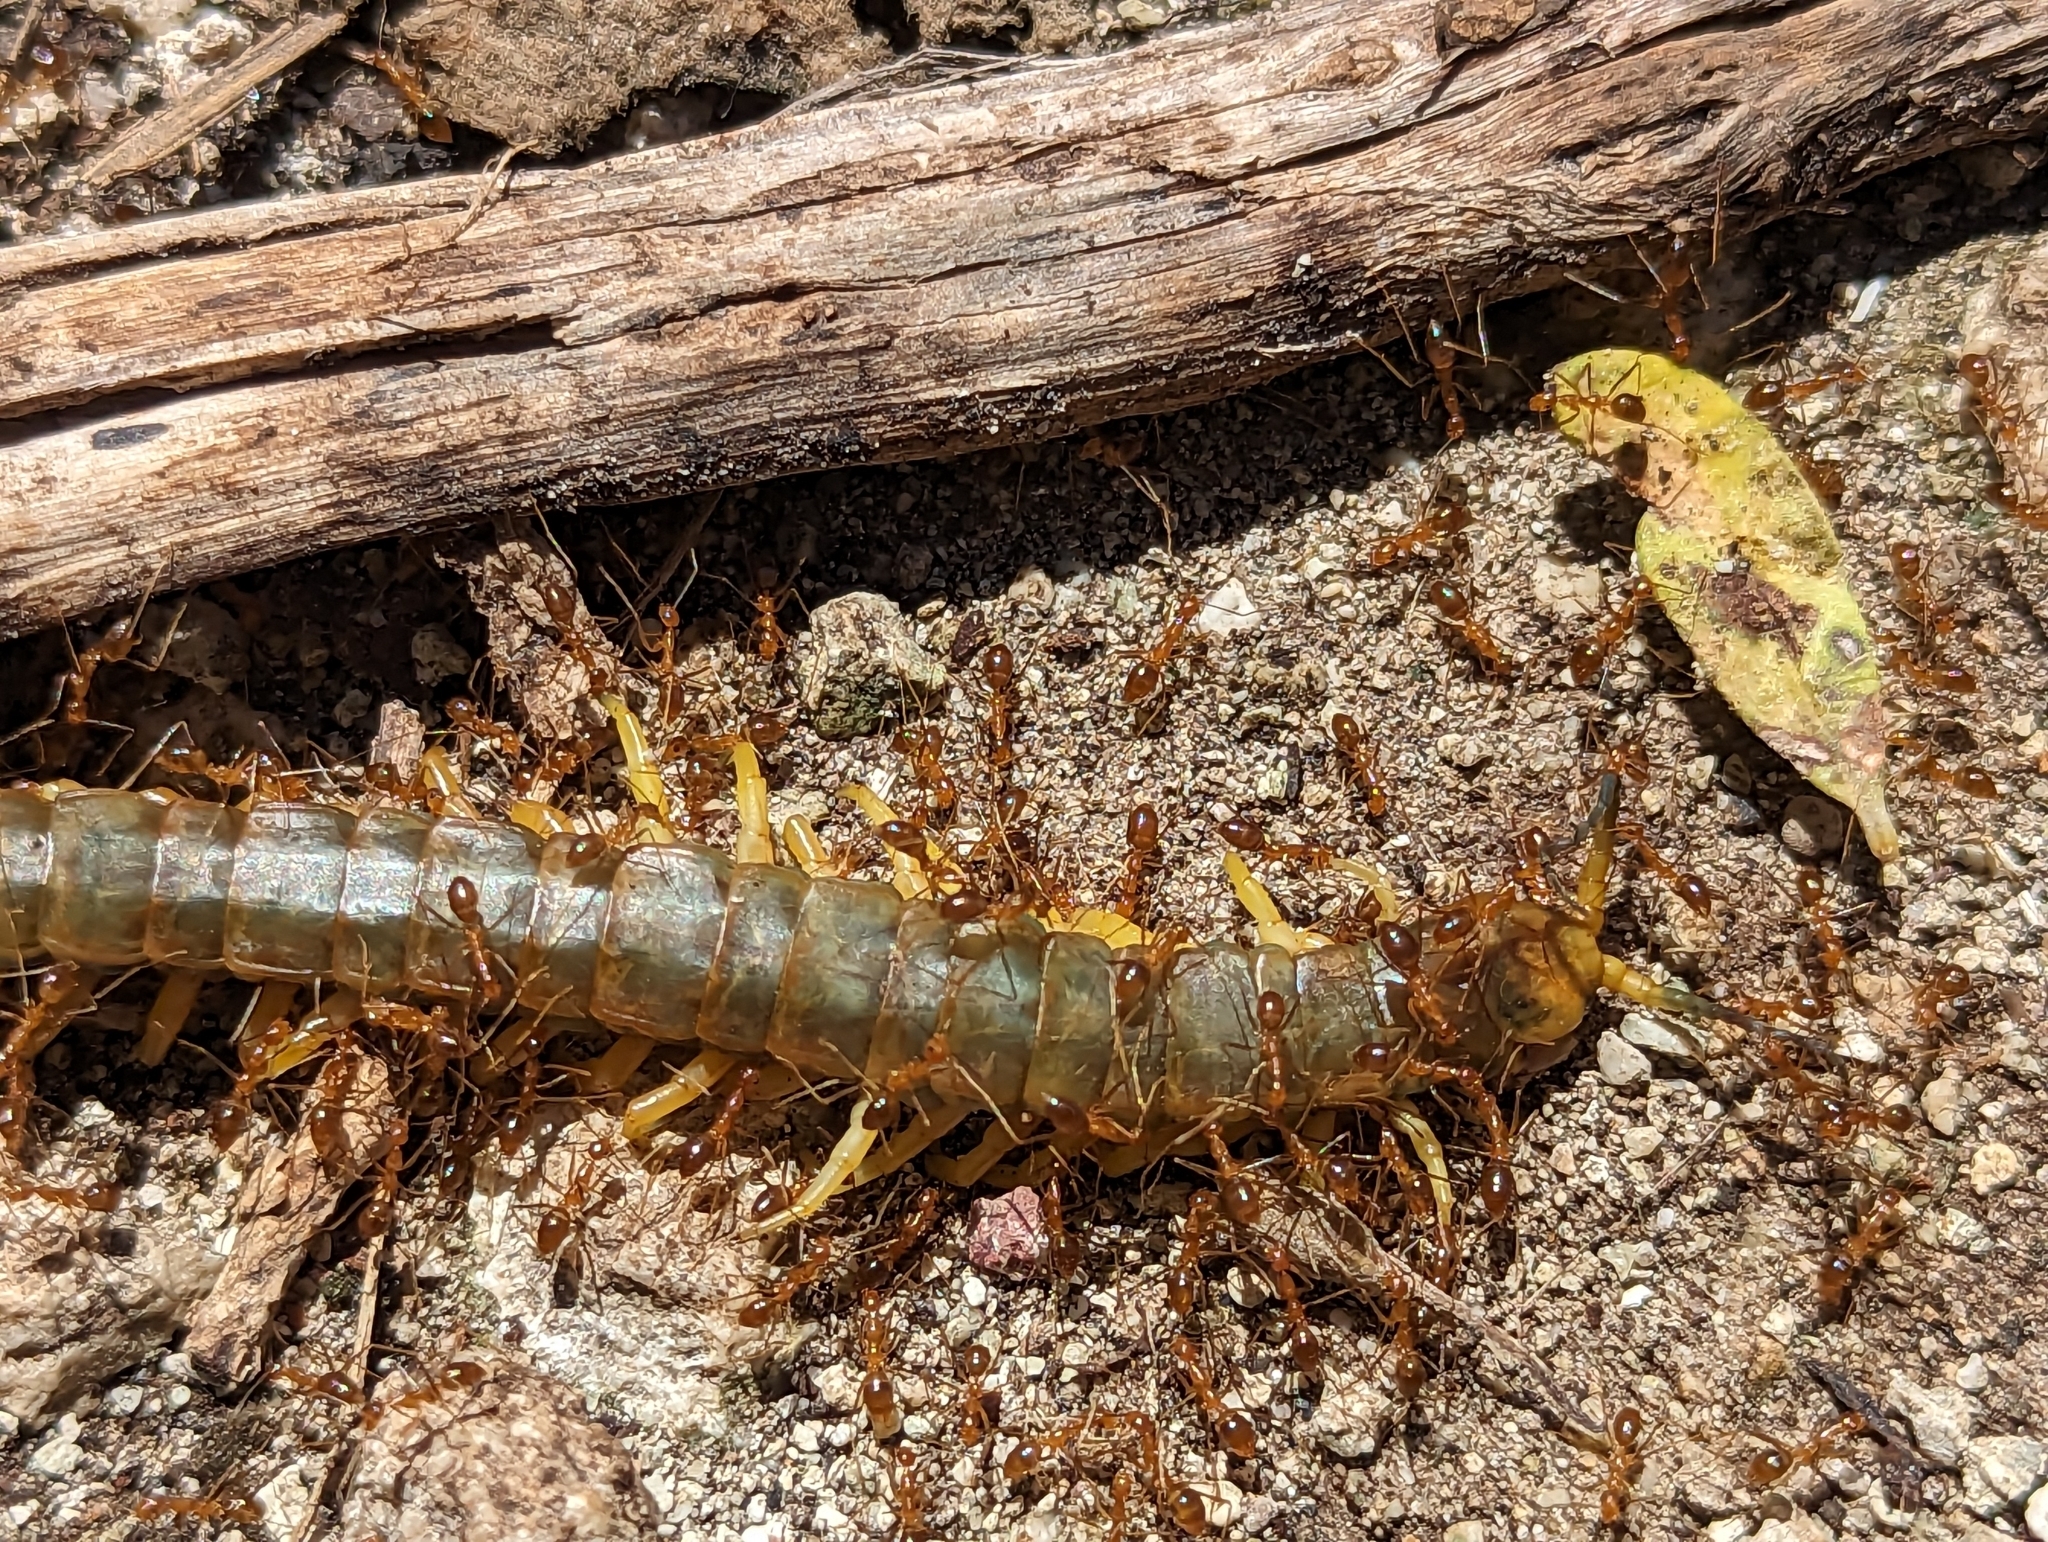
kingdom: Animalia
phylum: Arthropoda
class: Insecta
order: Hymenoptera
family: Formicidae
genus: Anoplolepis
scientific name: Anoplolepis gracilipes
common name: Ant
